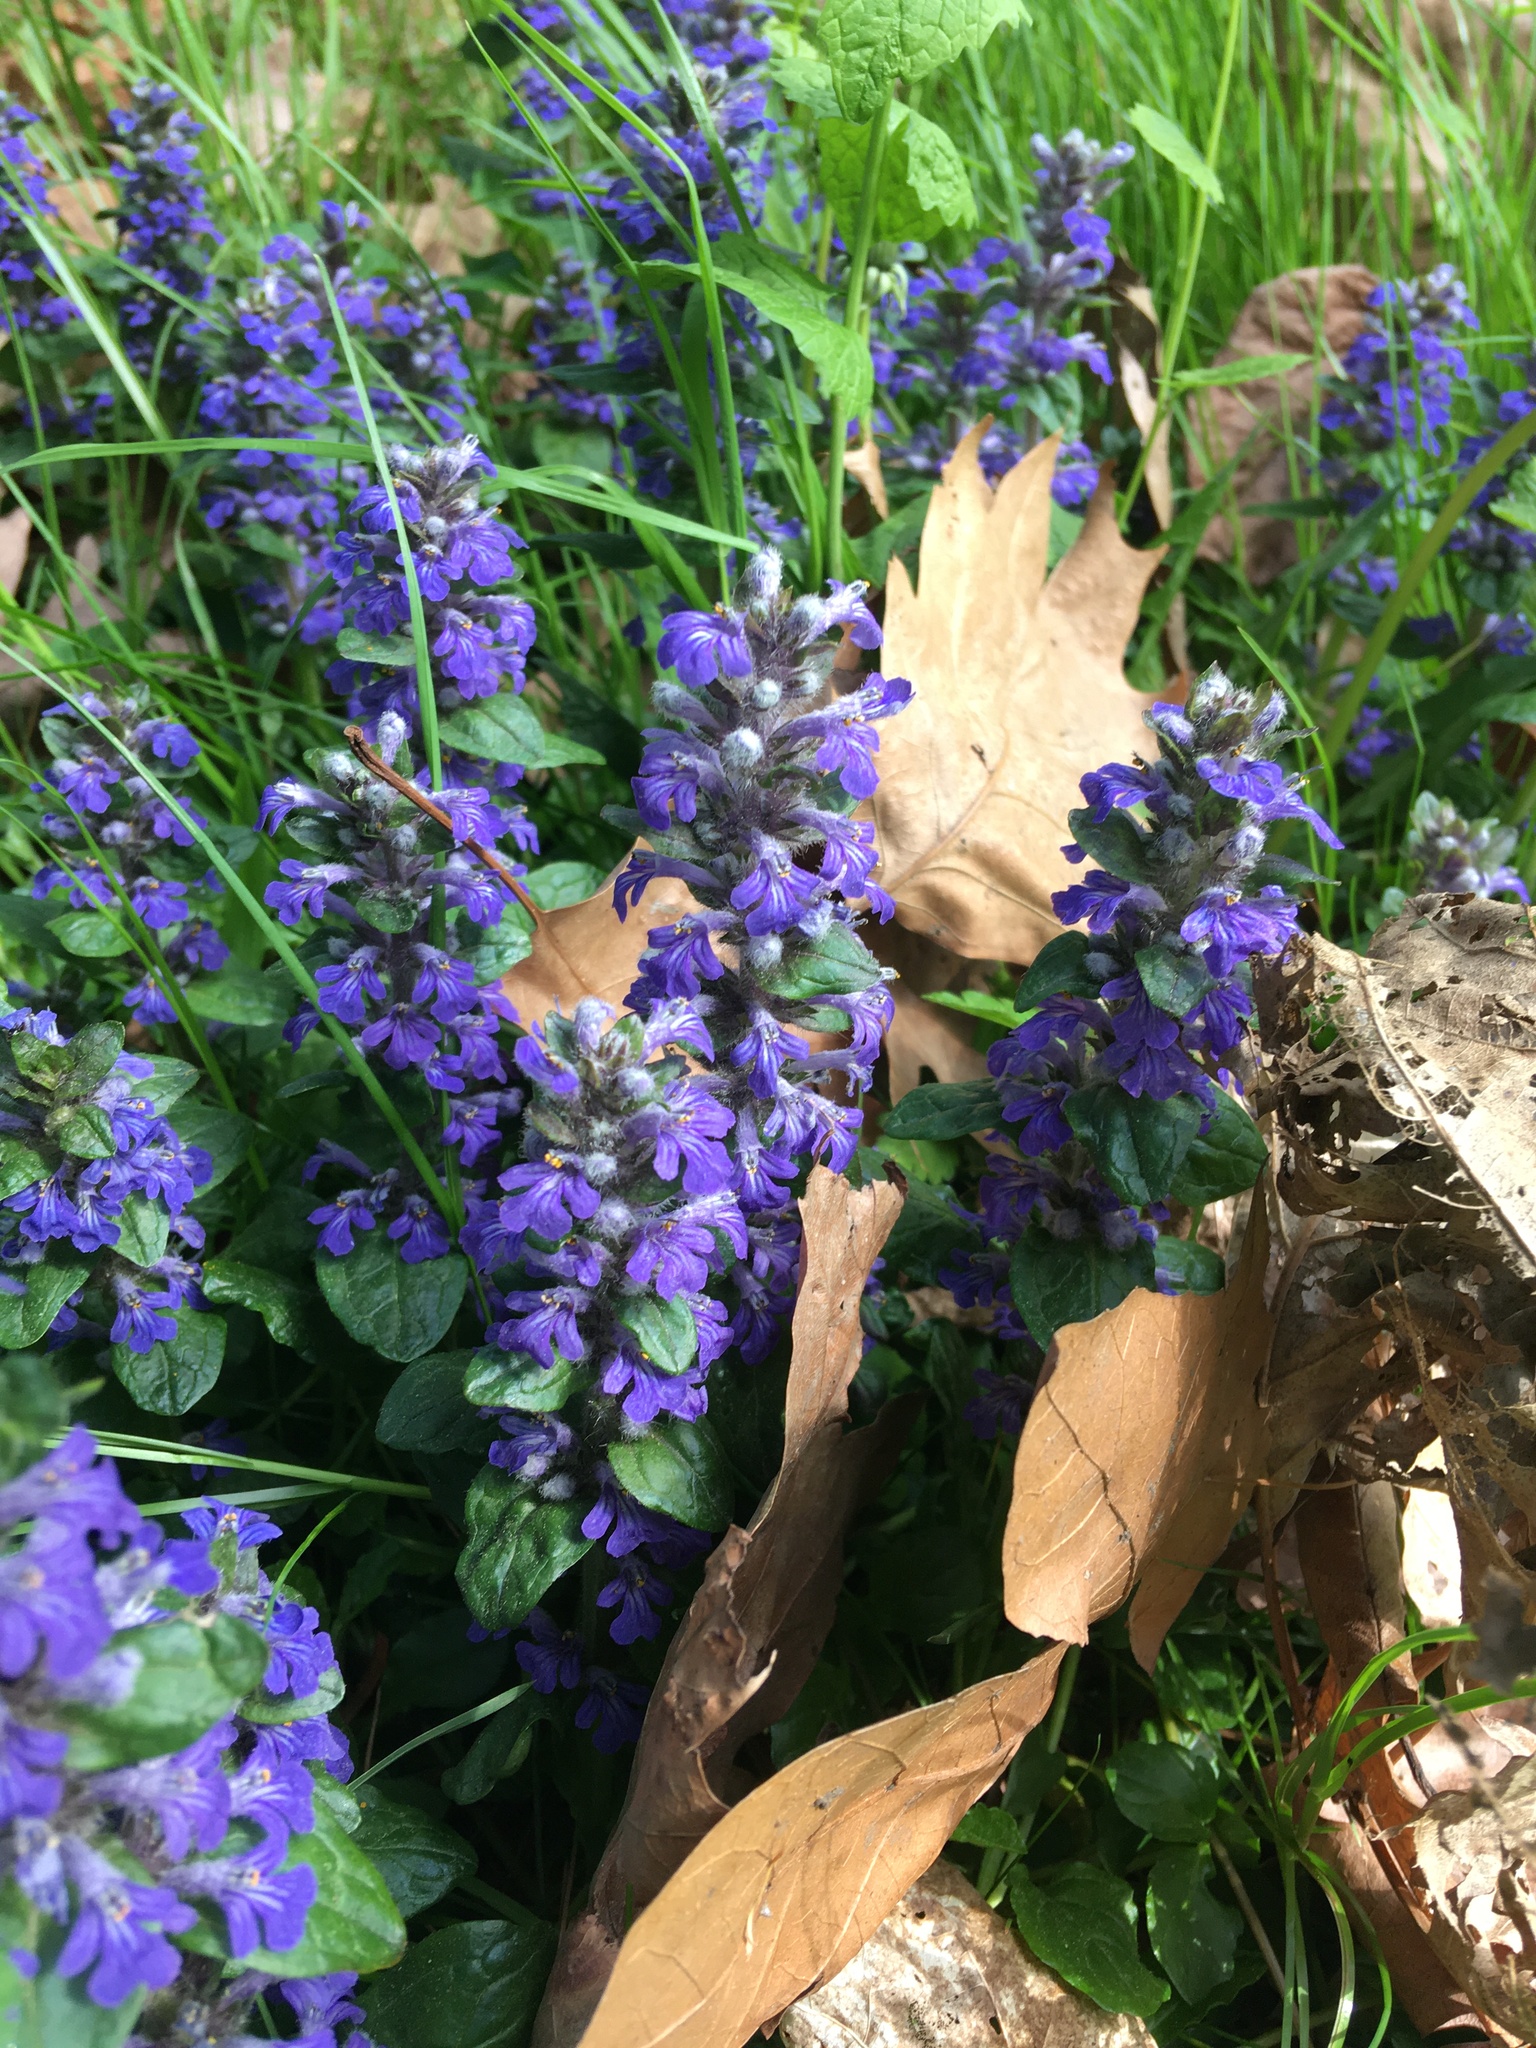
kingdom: Plantae
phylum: Tracheophyta
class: Magnoliopsida
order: Lamiales
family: Lamiaceae
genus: Ajuga
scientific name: Ajuga reptans
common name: Bugle
